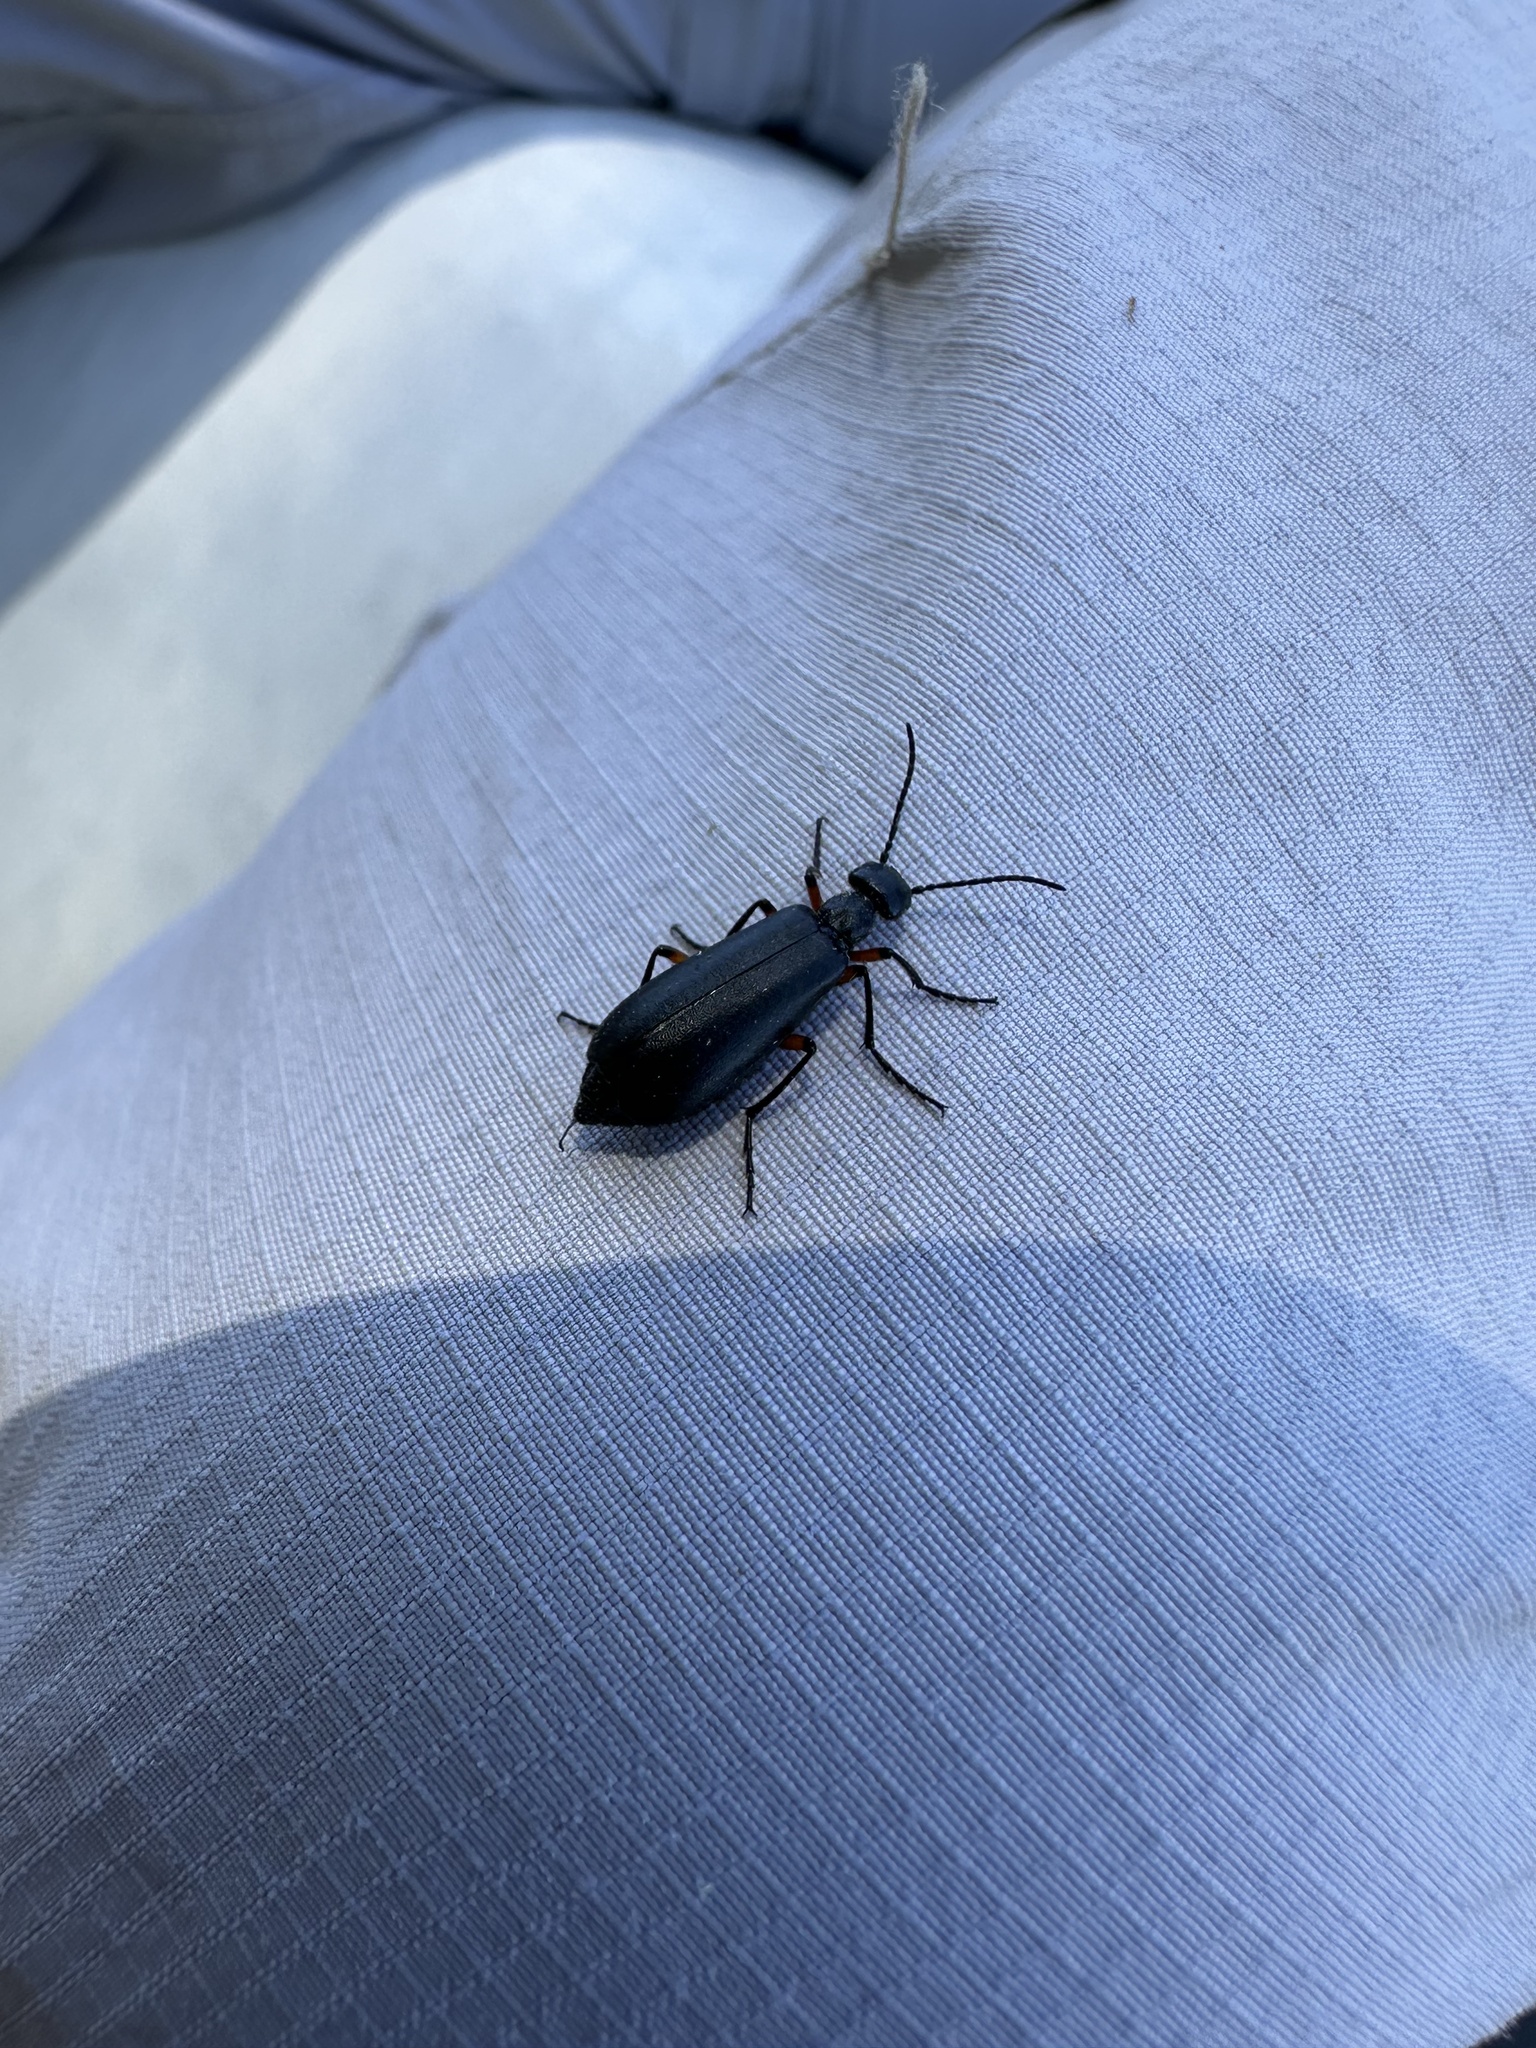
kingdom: Animalia
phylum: Arthropoda
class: Insecta
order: Coleoptera
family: Meloidae
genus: Epicauta
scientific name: Epicauta
